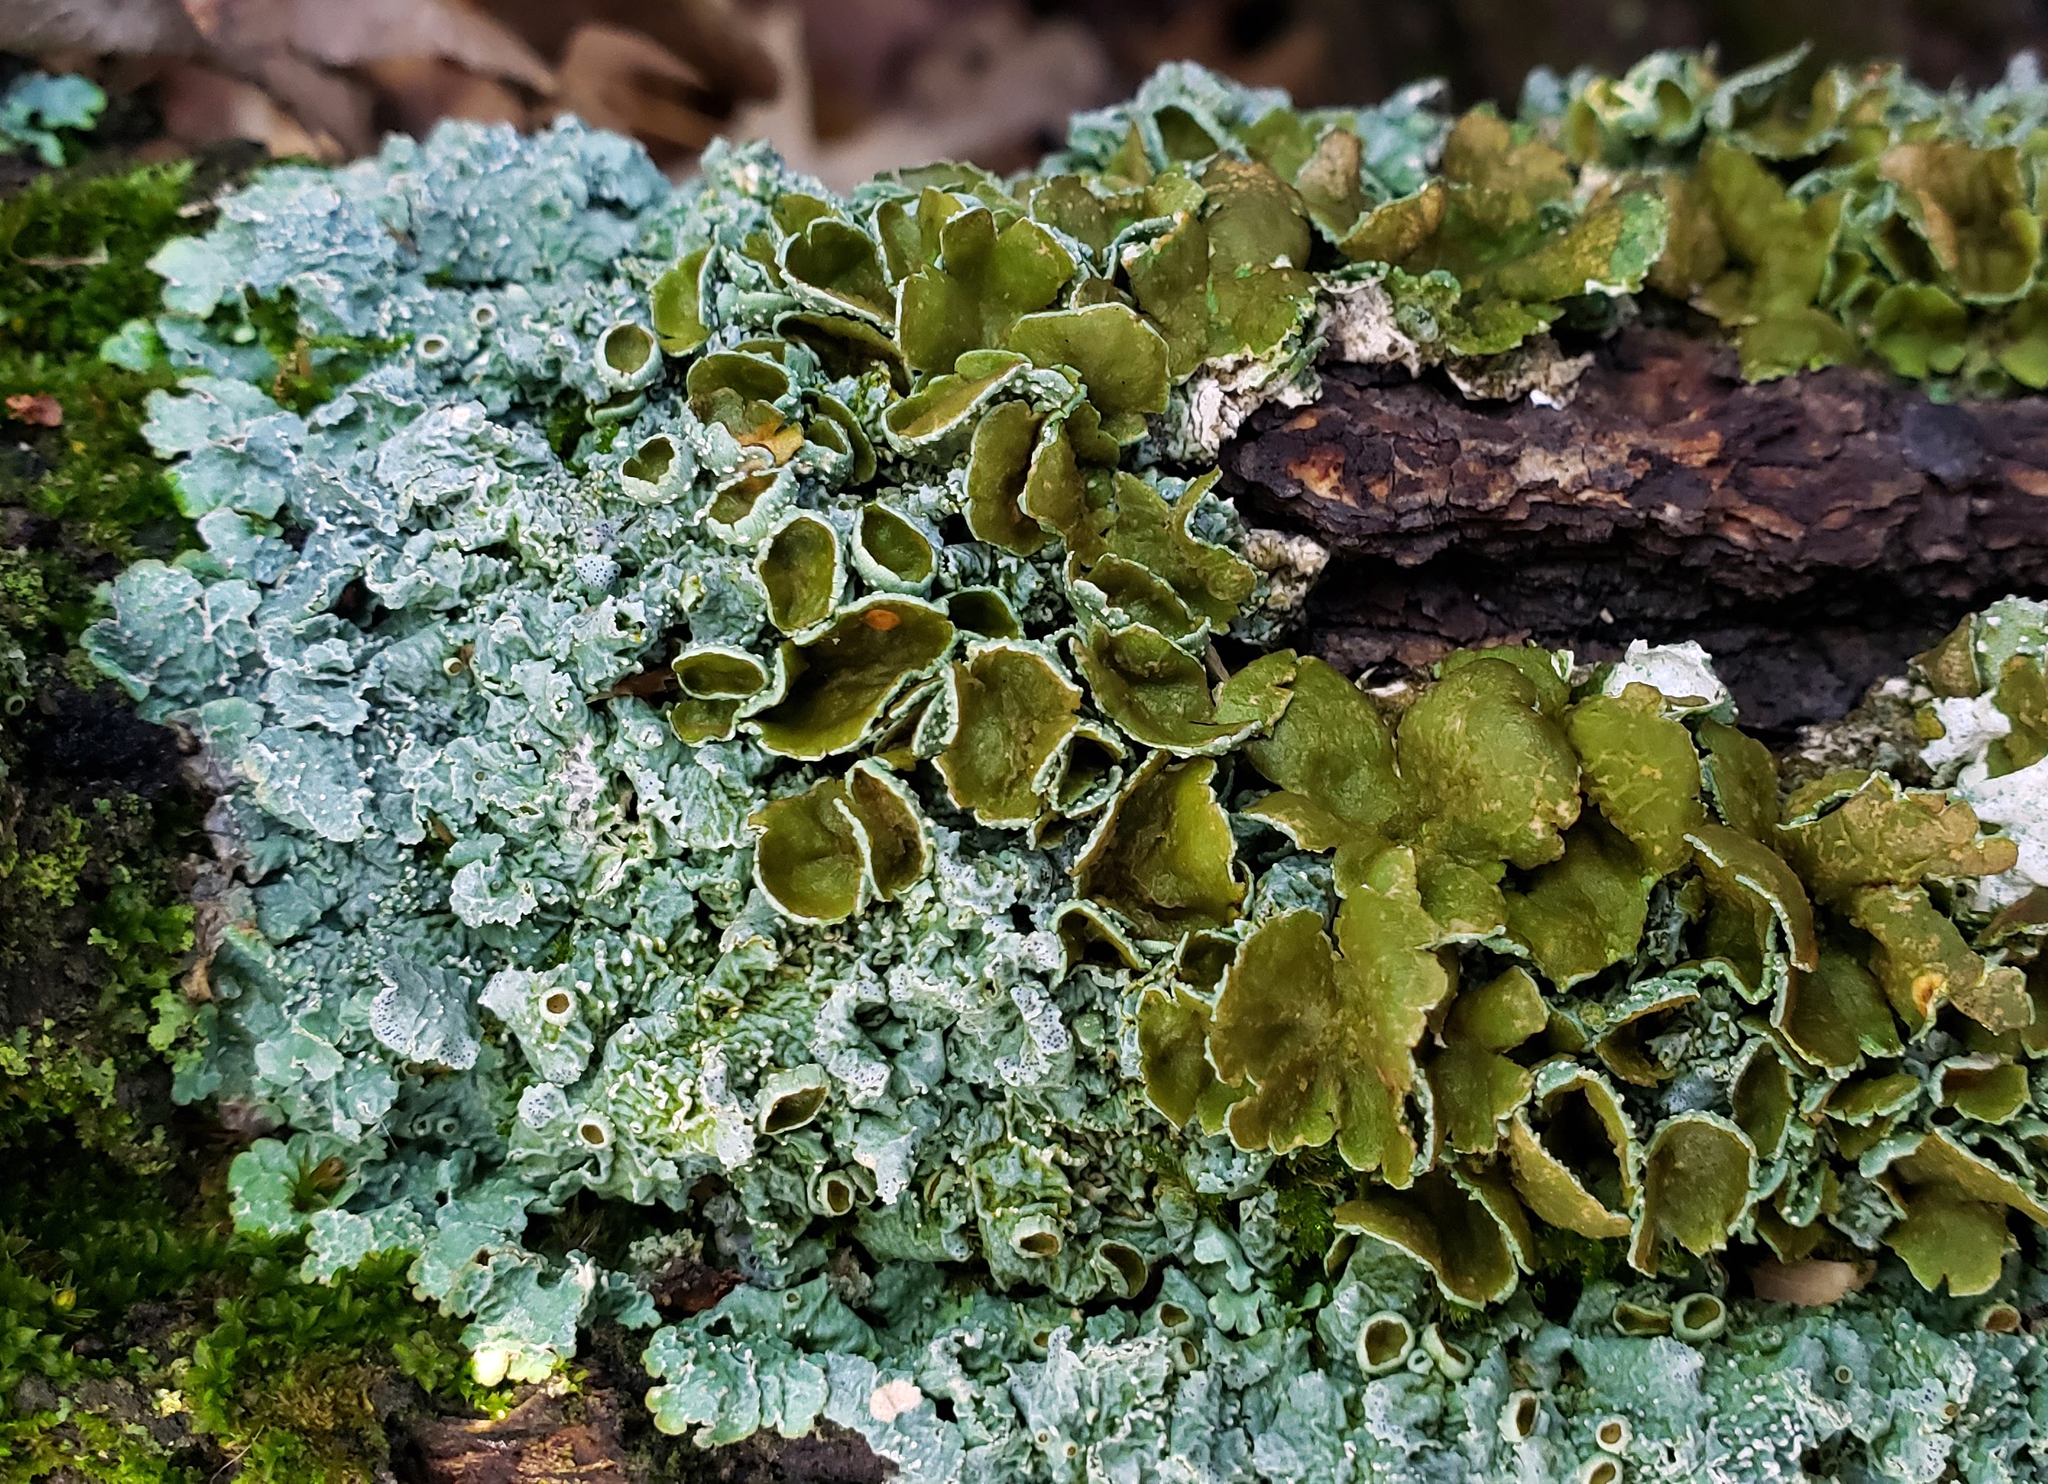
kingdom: Fungi
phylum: Ascomycota
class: Lecanoromycetes
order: Lecanorales
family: Parmeliaceae
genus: Punctelia
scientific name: Punctelia bolliana
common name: Eastern speckled shield lichen
